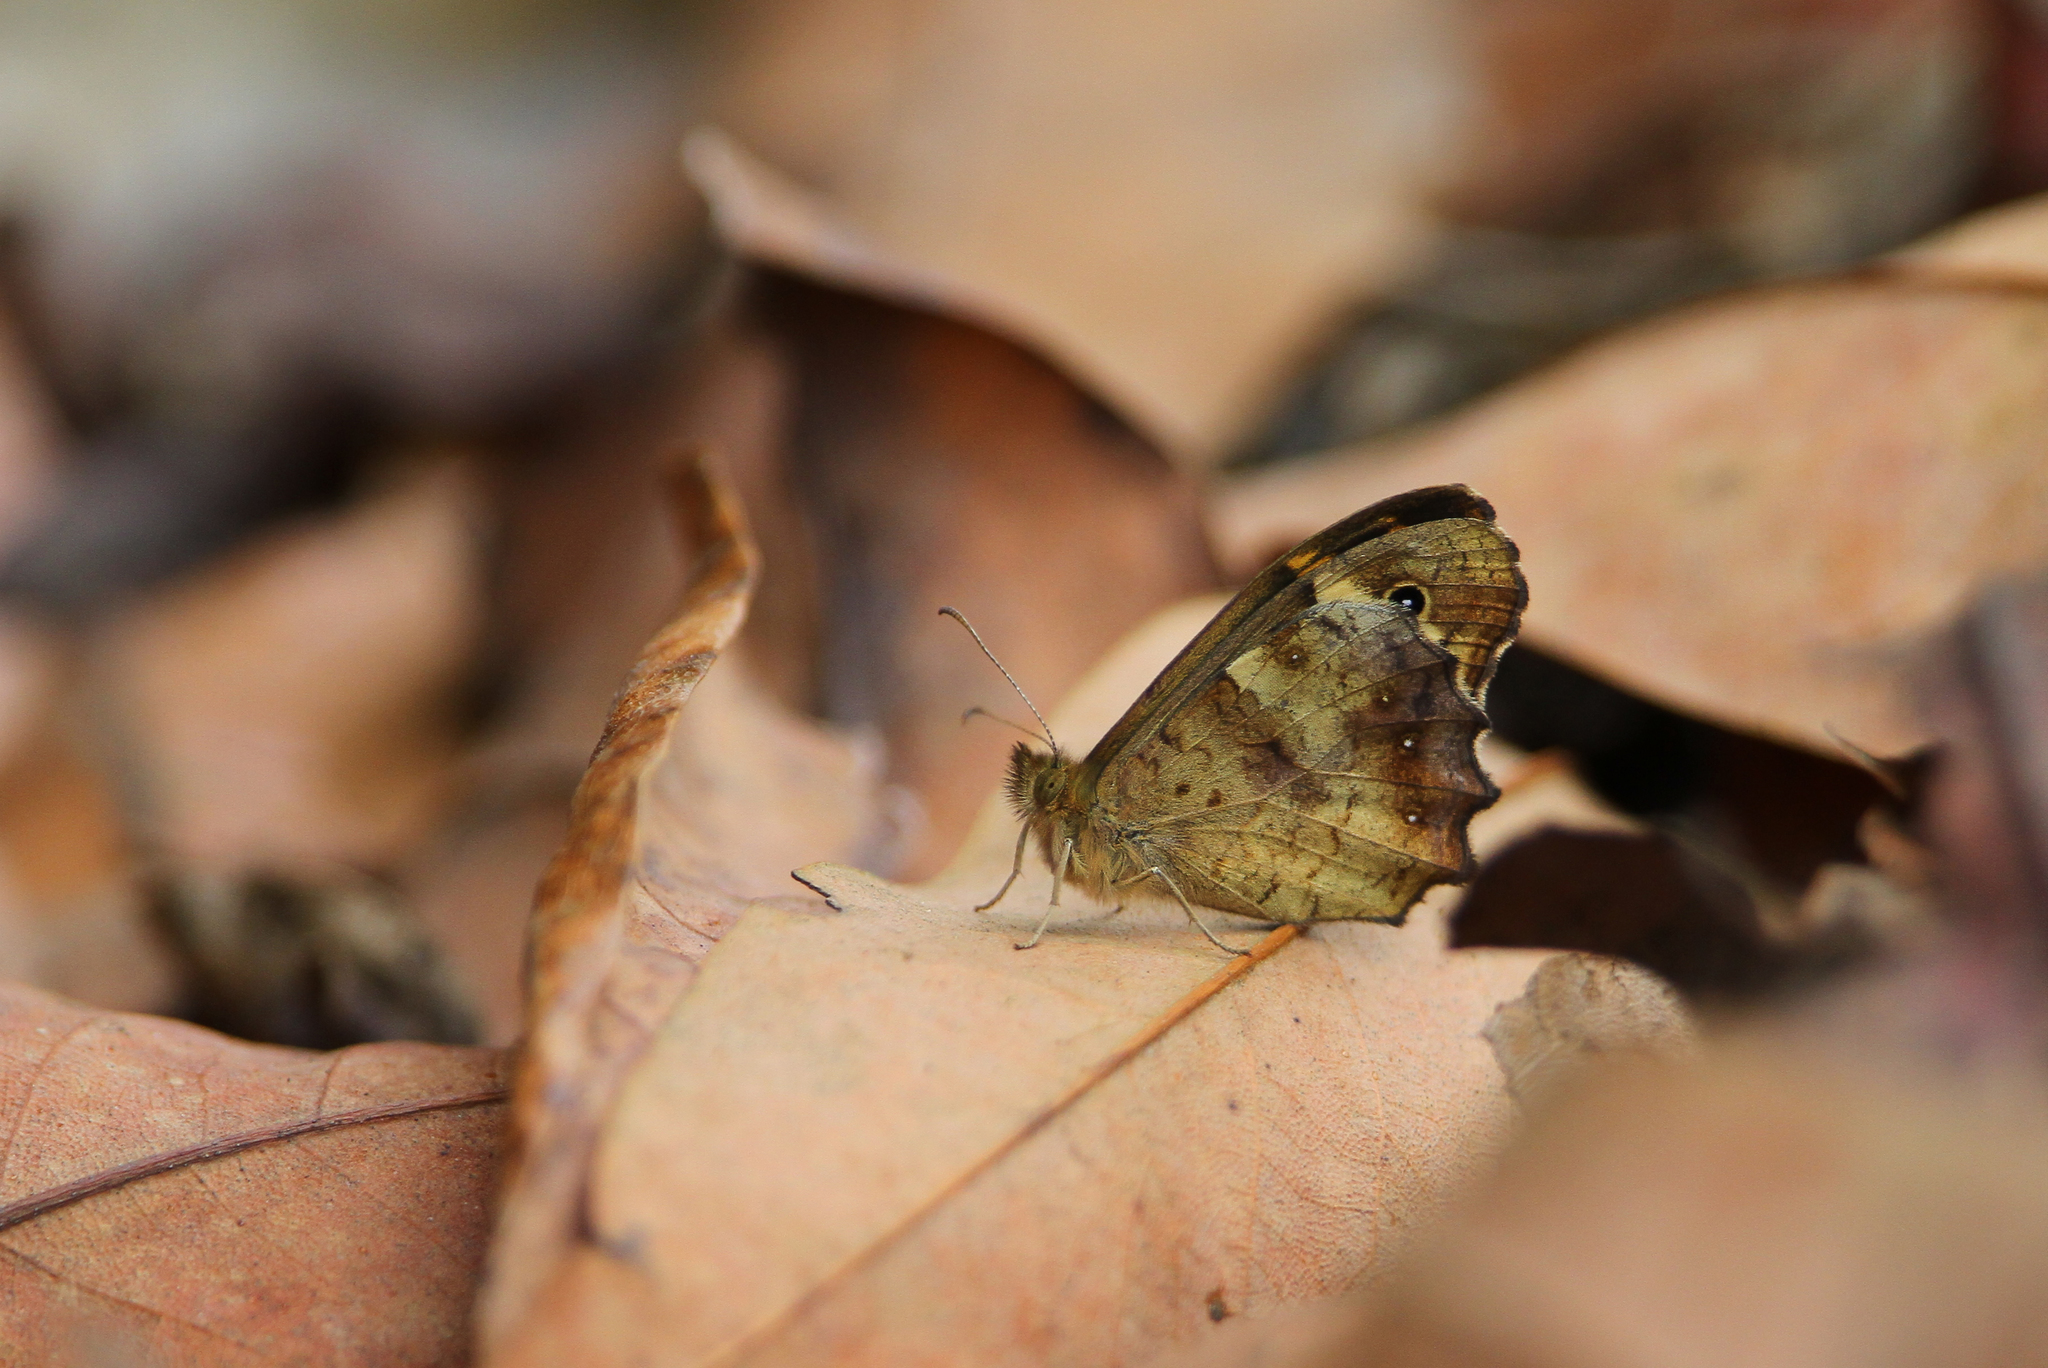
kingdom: Animalia
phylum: Arthropoda
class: Insecta
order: Lepidoptera
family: Nymphalidae
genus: Pararge
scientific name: Pararge aegeria
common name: Speckled wood
